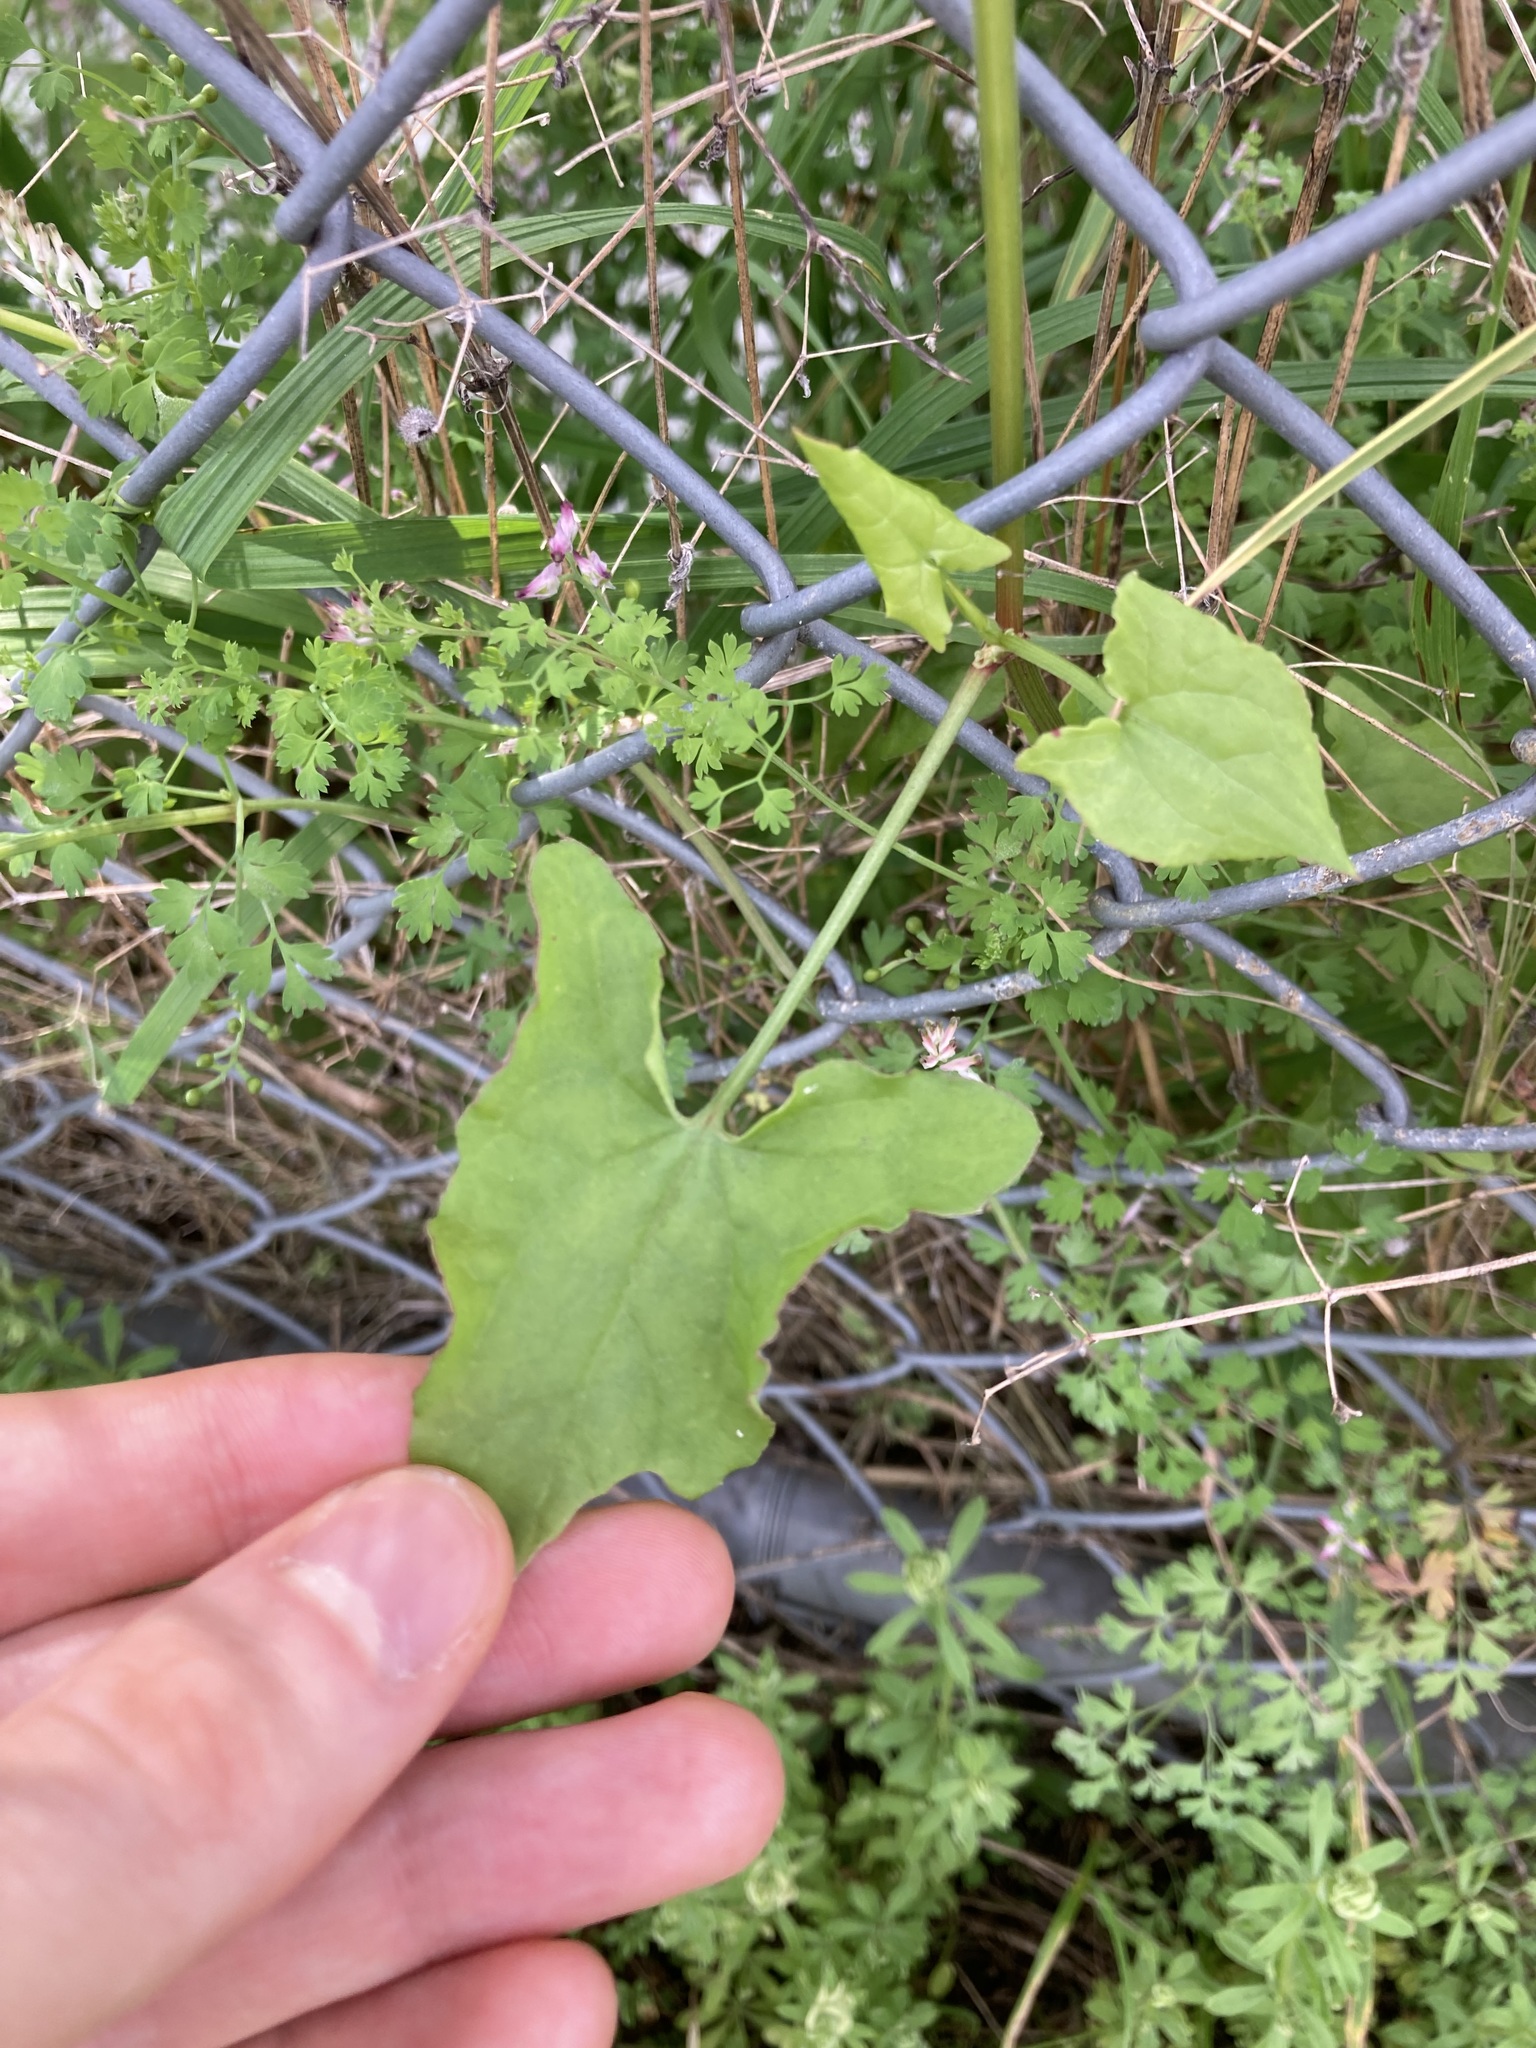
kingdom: Plantae
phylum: Tracheophyta
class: Magnoliopsida
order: Caryophyllales
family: Polygonaceae
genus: Rumex
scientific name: Rumex sagittatus
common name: Climbing dock
